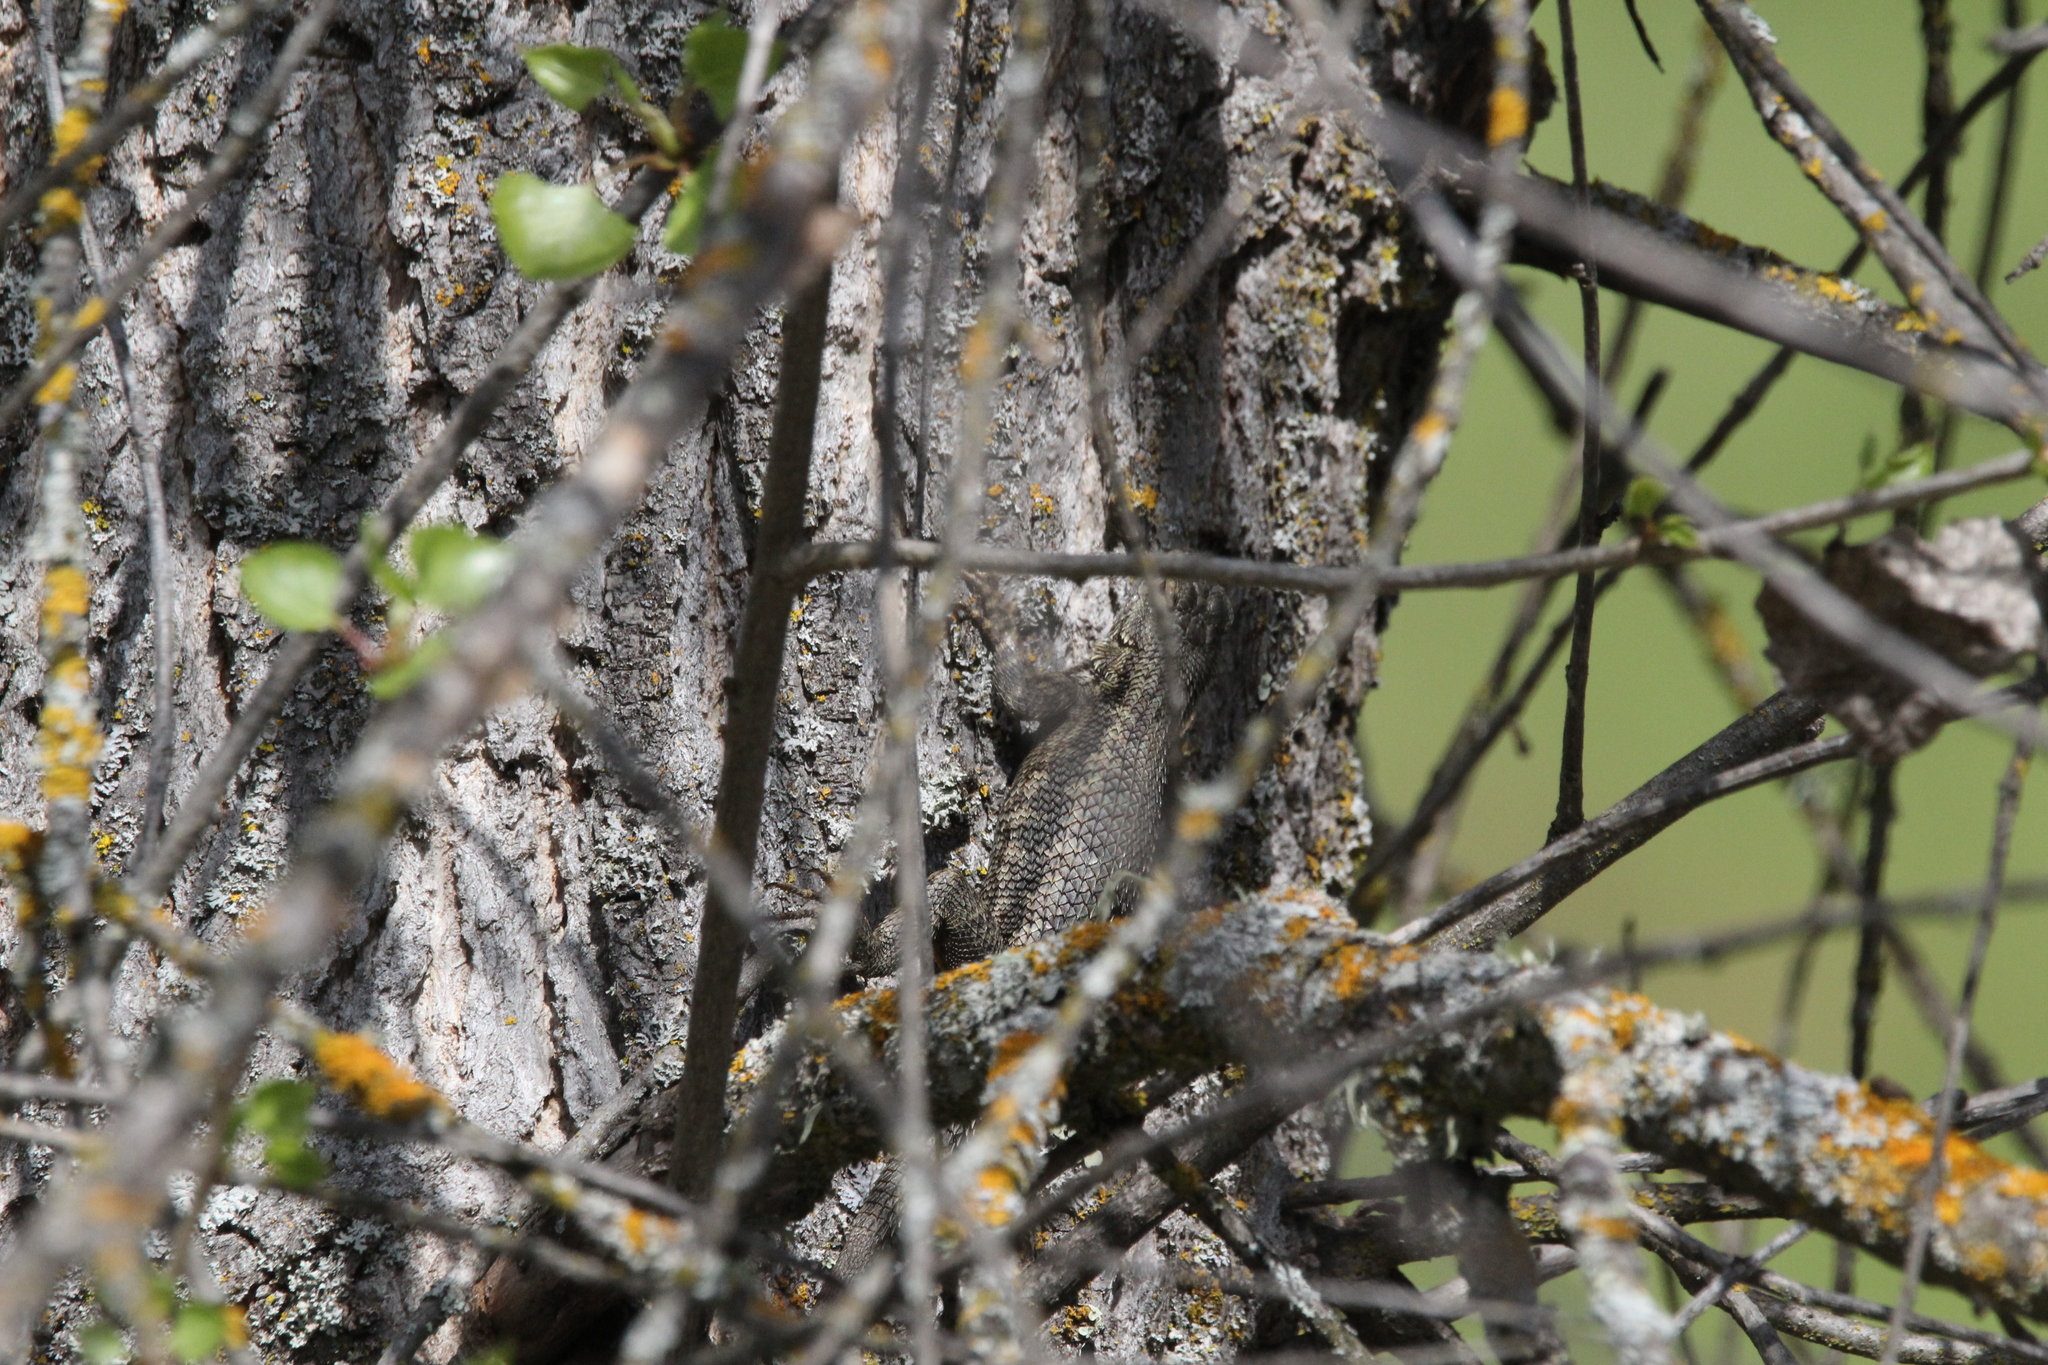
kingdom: Animalia
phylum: Chordata
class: Squamata
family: Phrynosomatidae
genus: Sceloporus
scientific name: Sceloporus occidentalis
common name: Western fence lizard
